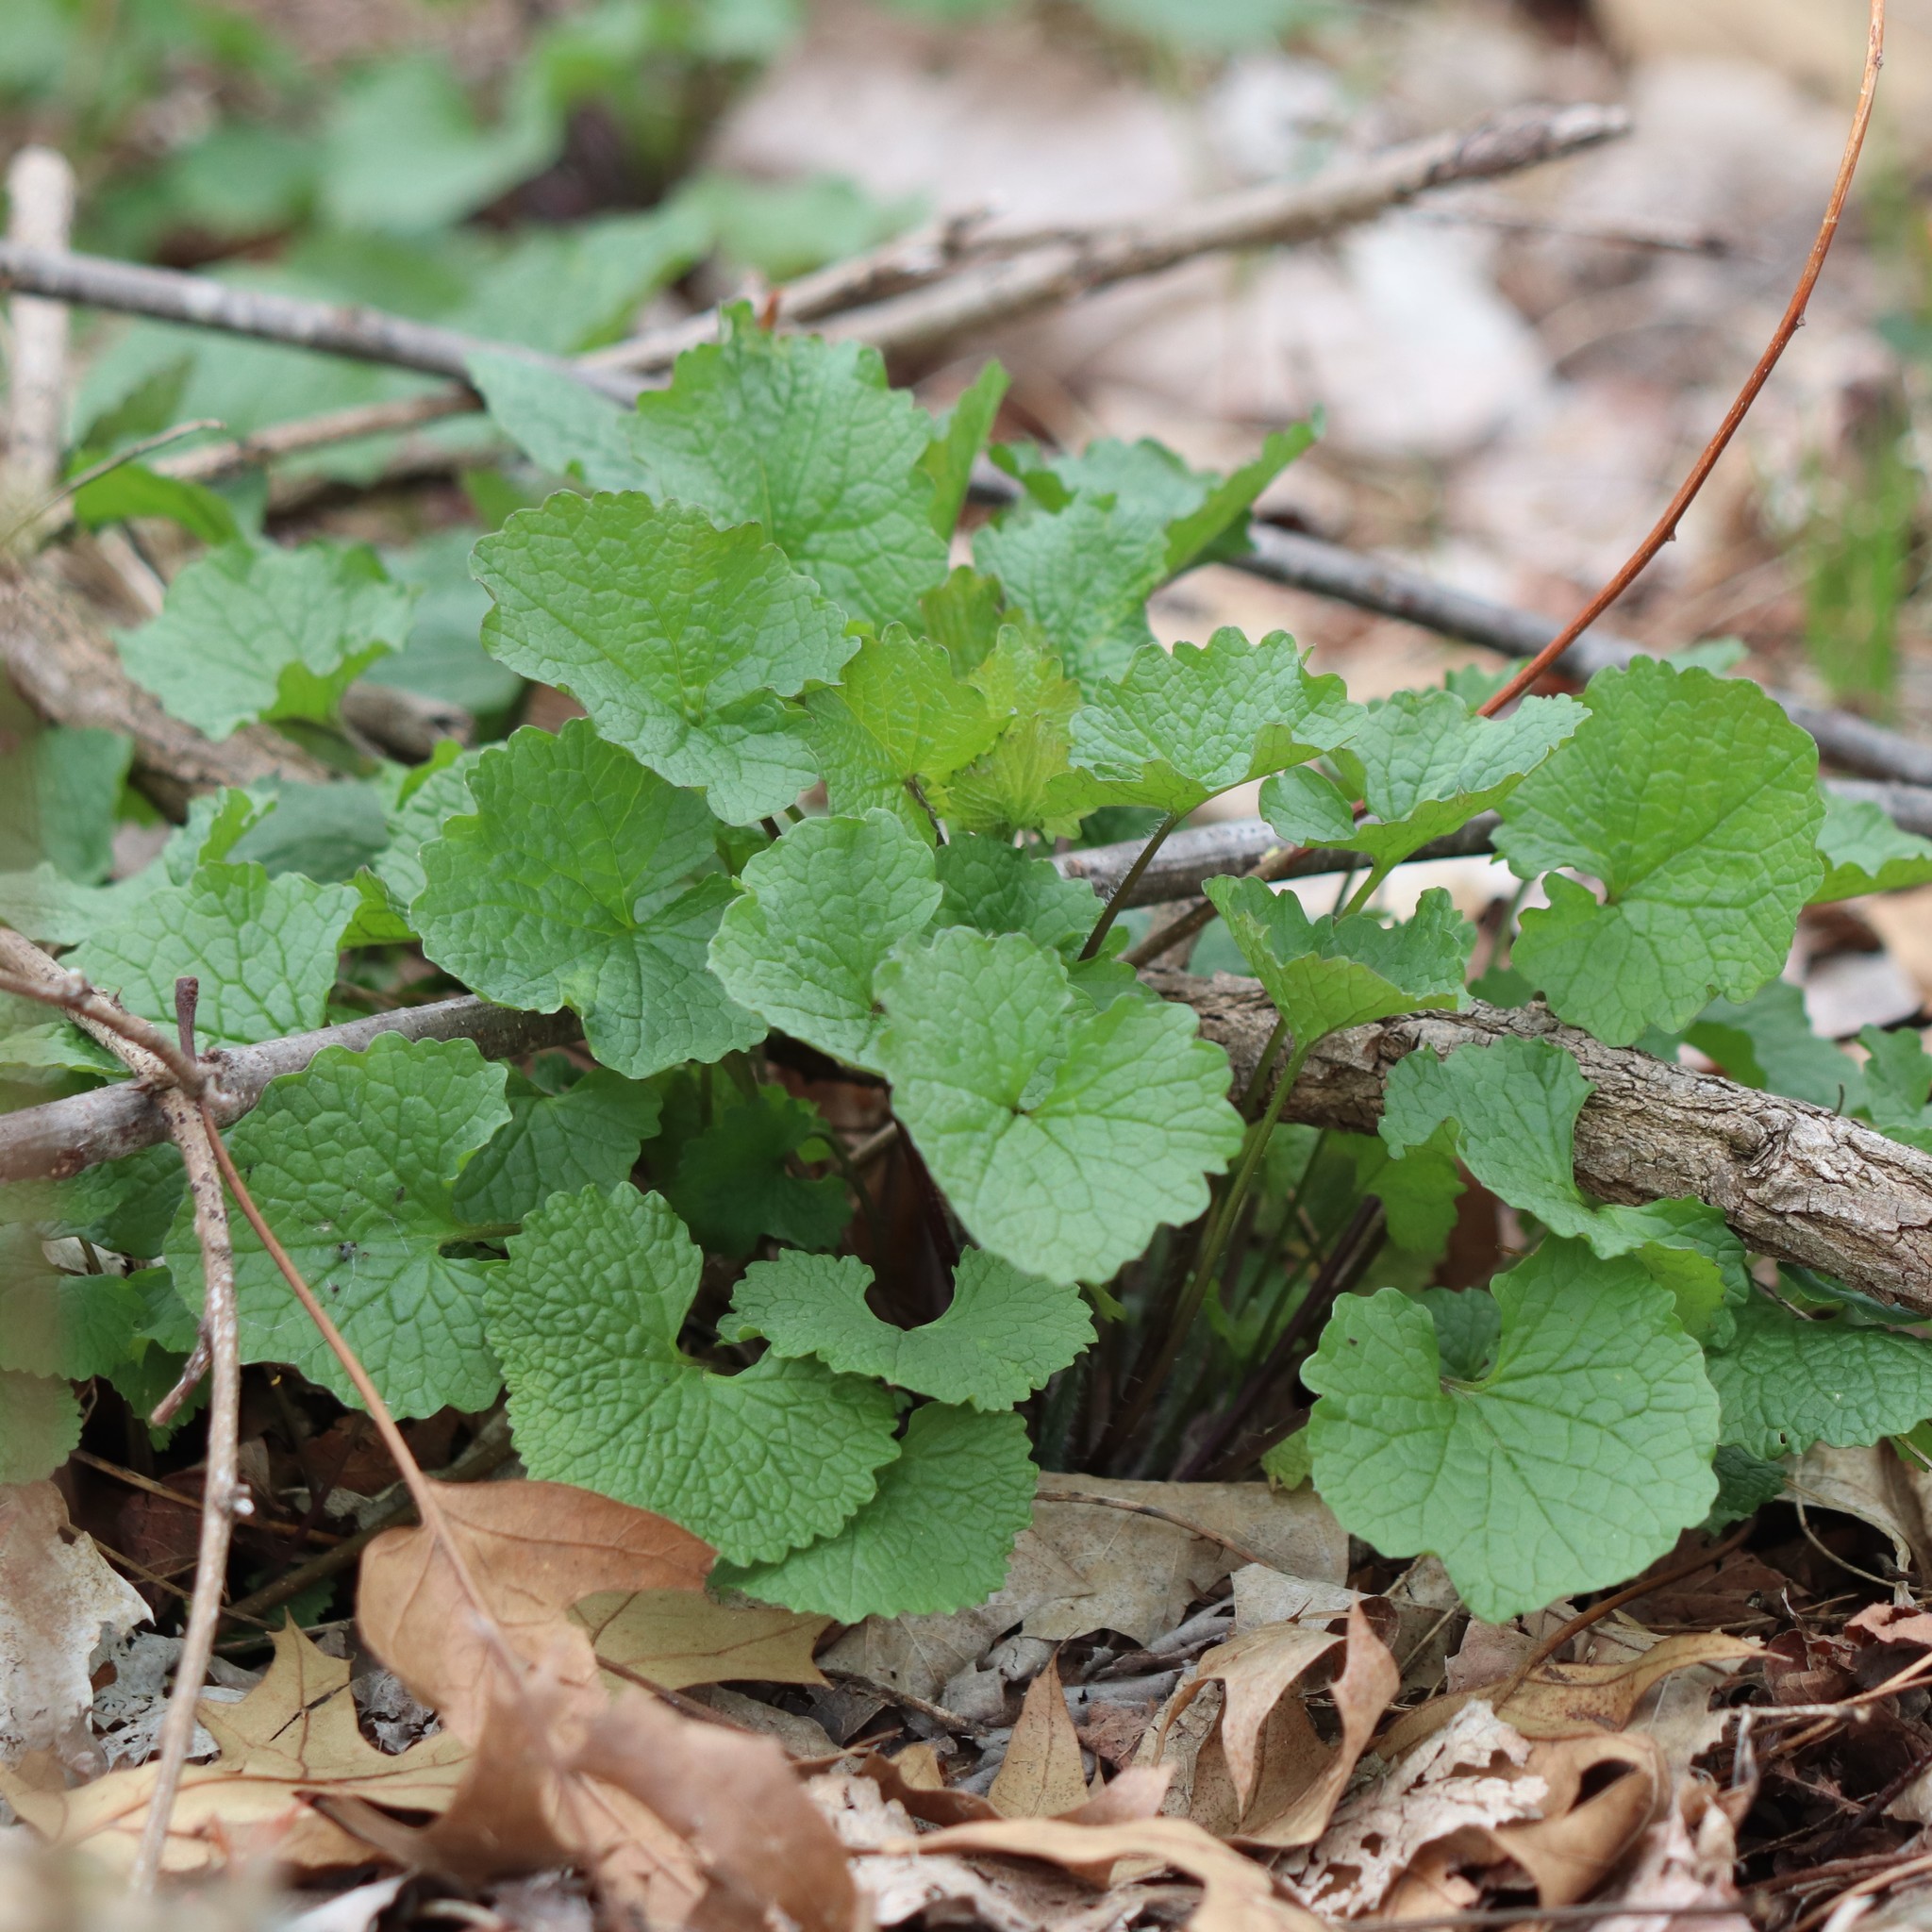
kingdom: Plantae
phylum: Tracheophyta
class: Magnoliopsida
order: Brassicales
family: Brassicaceae
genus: Alliaria
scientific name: Alliaria petiolata
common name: Garlic mustard
